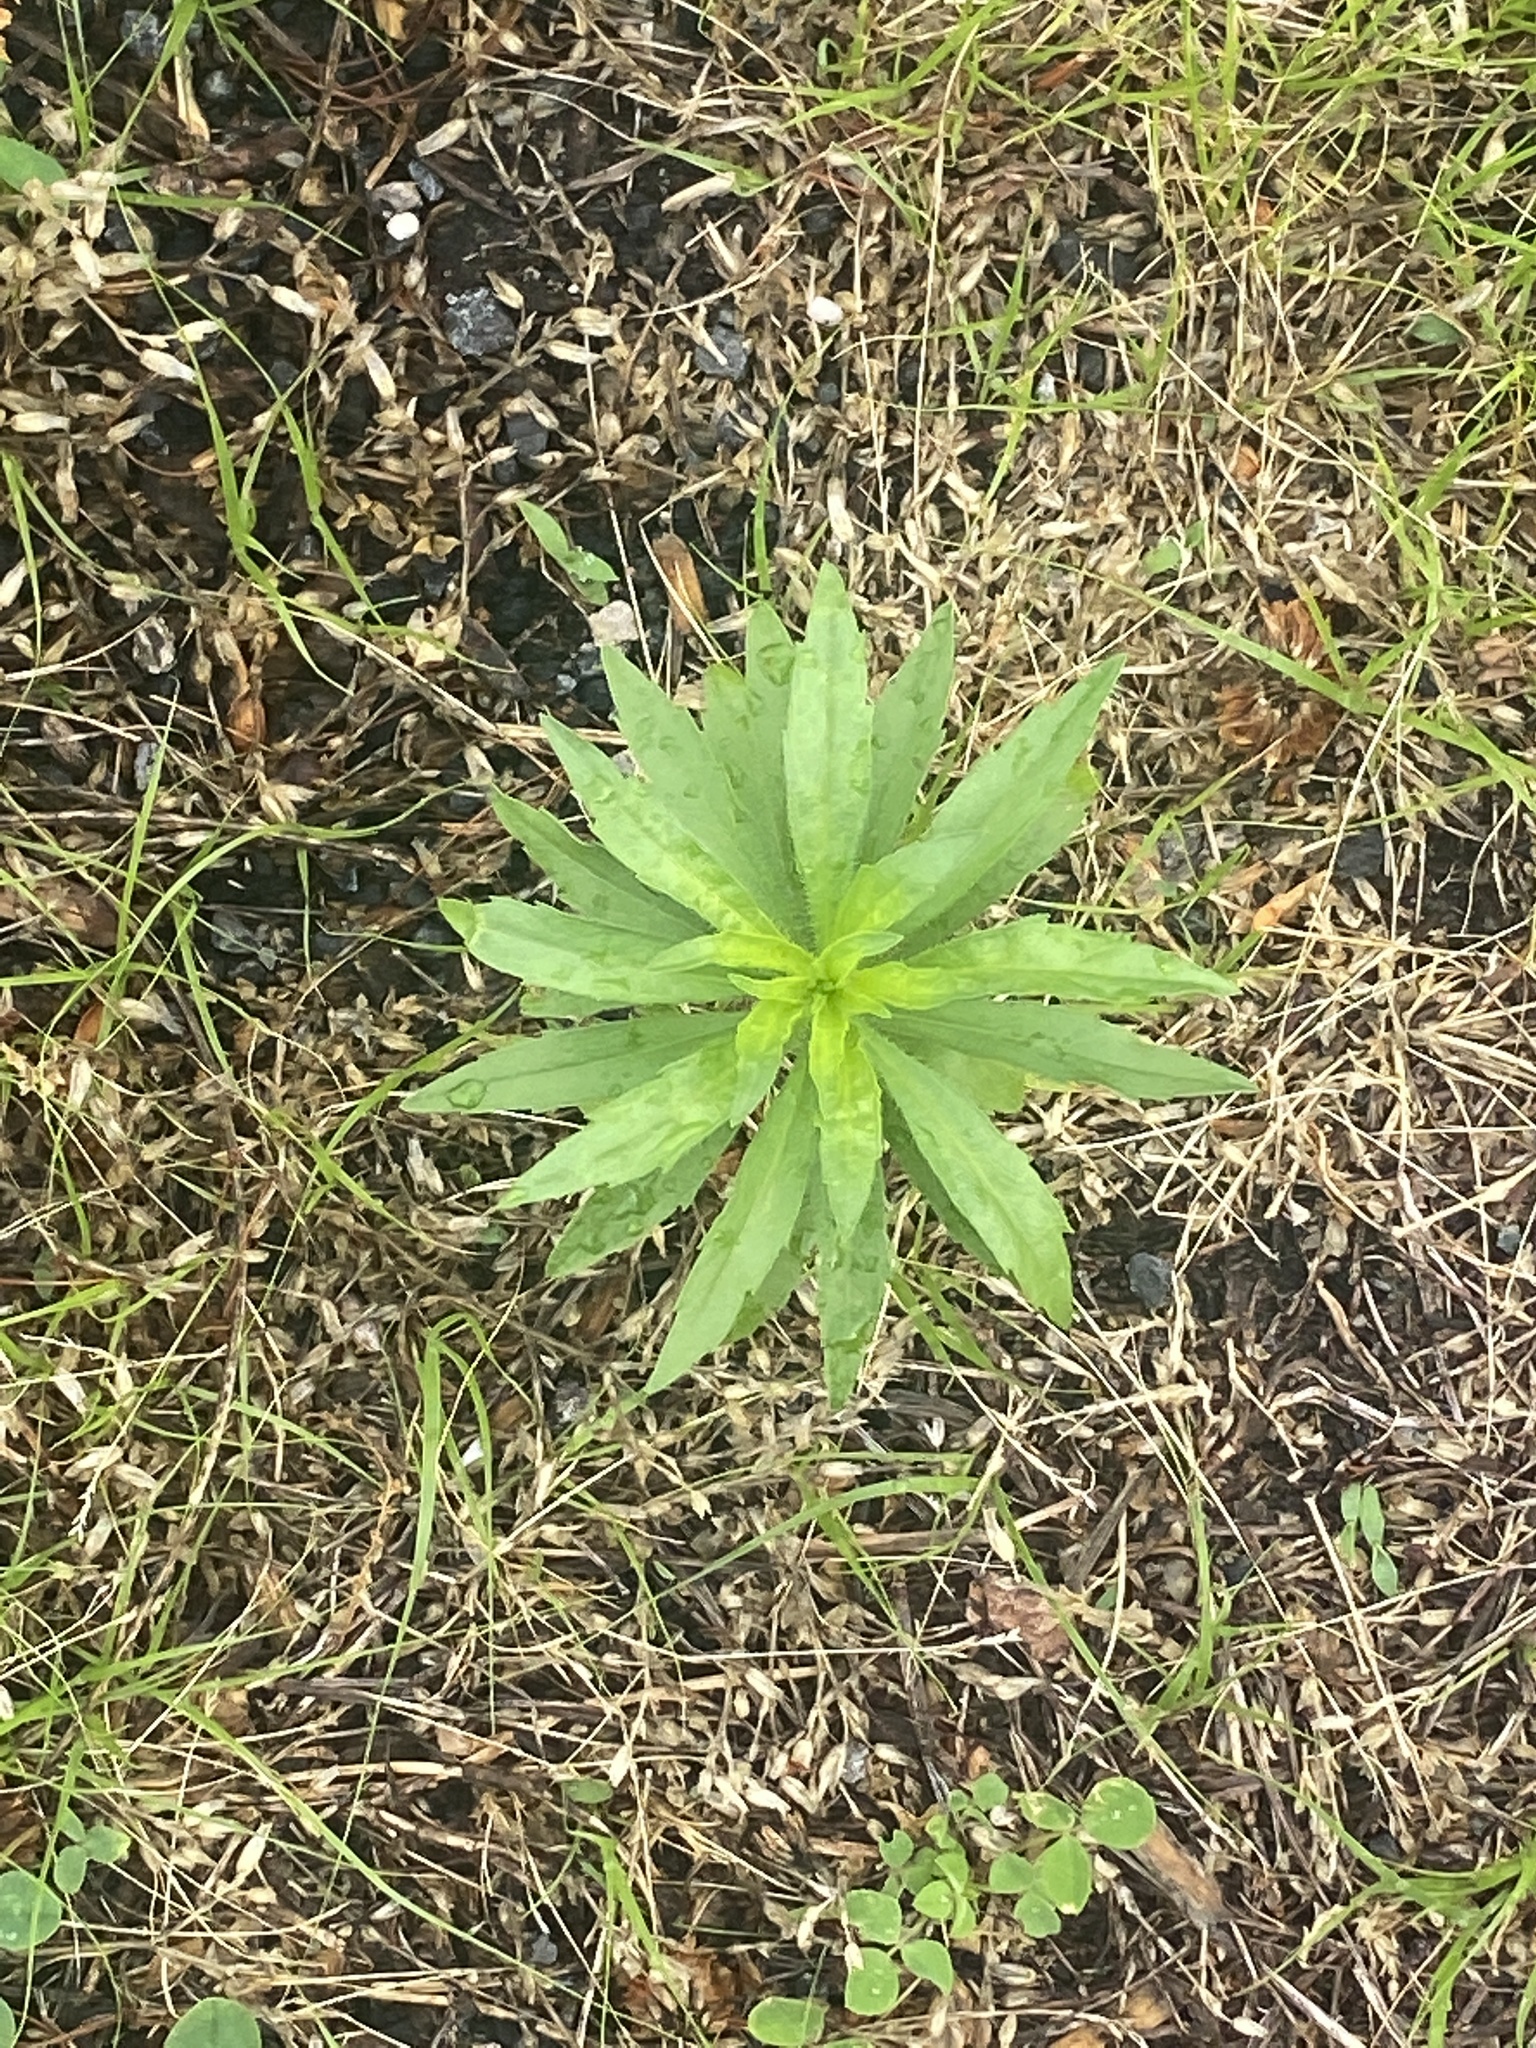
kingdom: Plantae
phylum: Tracheophyta
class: Magnoliopsida
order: Asterales
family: Asteraceae
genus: Erigeron
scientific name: Erigeron canadensis
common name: Canadian fleabane
